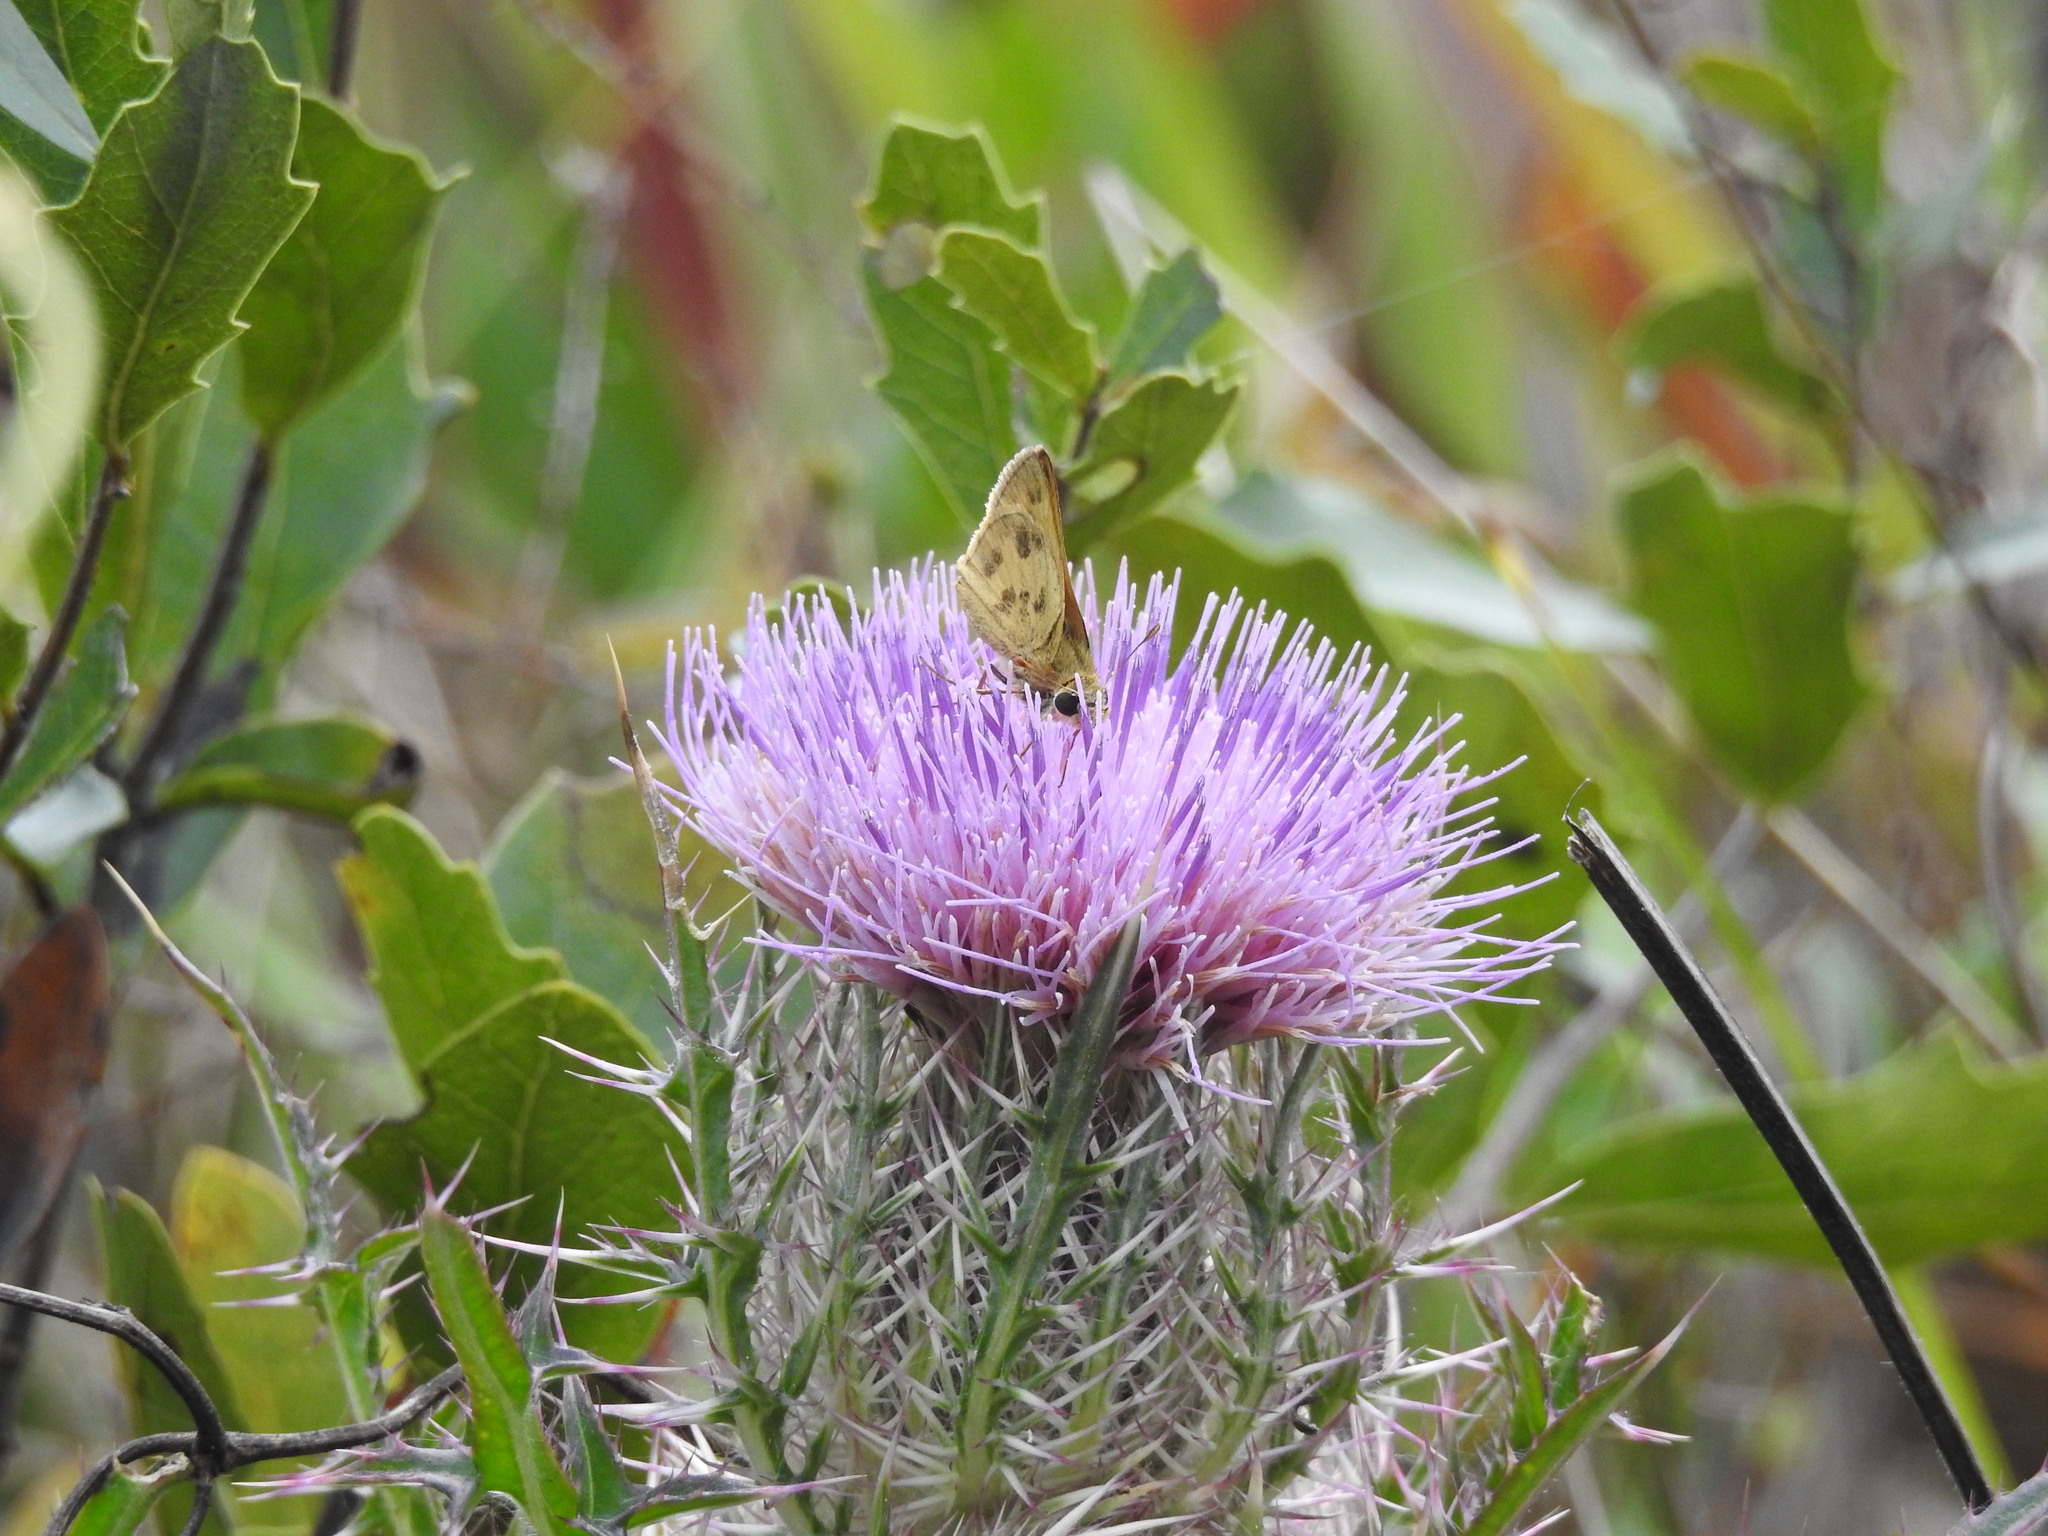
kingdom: Animalia
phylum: Arthropoda
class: Insecta
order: Lepidoptera
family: Hesperiidae
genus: Polites
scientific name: Polites vibex
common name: Whirlabout
